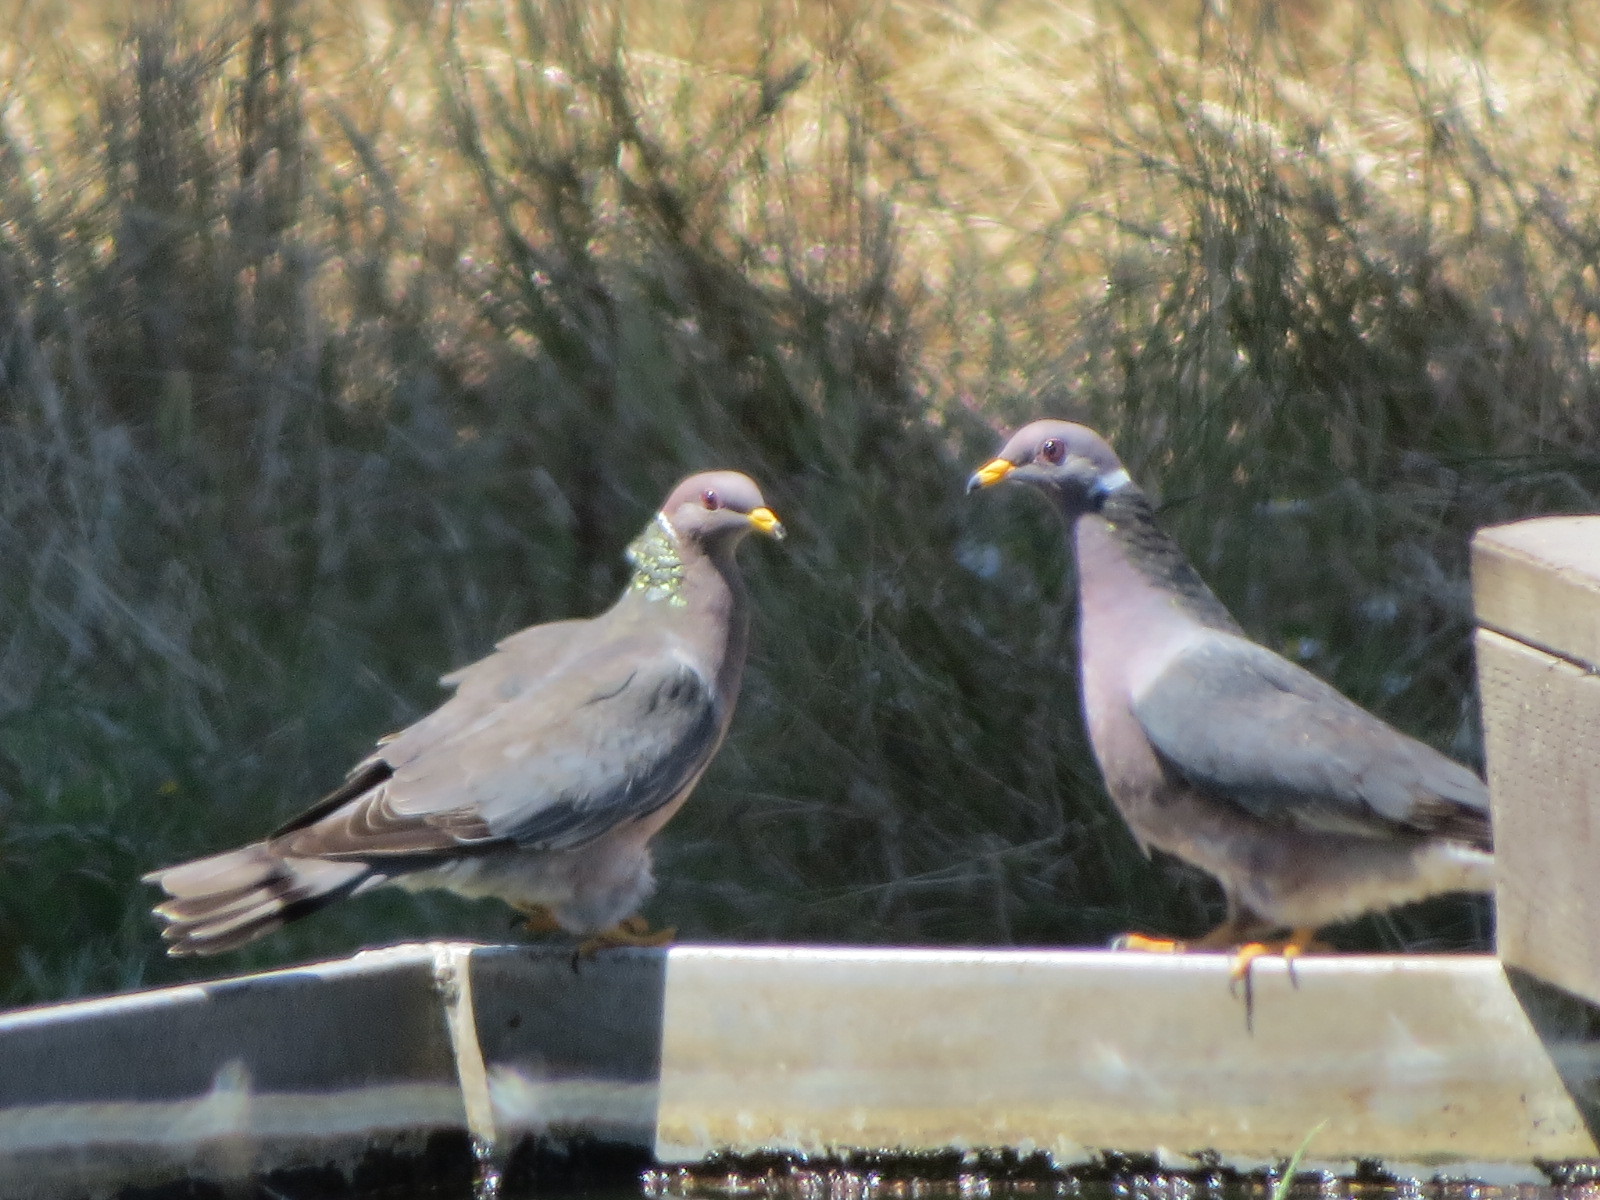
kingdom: Animalia
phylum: Chordata
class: Aves
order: Columbiformes
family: Columbidae
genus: Patagioenas
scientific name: Patagioenas fasciata
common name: Band-tailed pigeon
